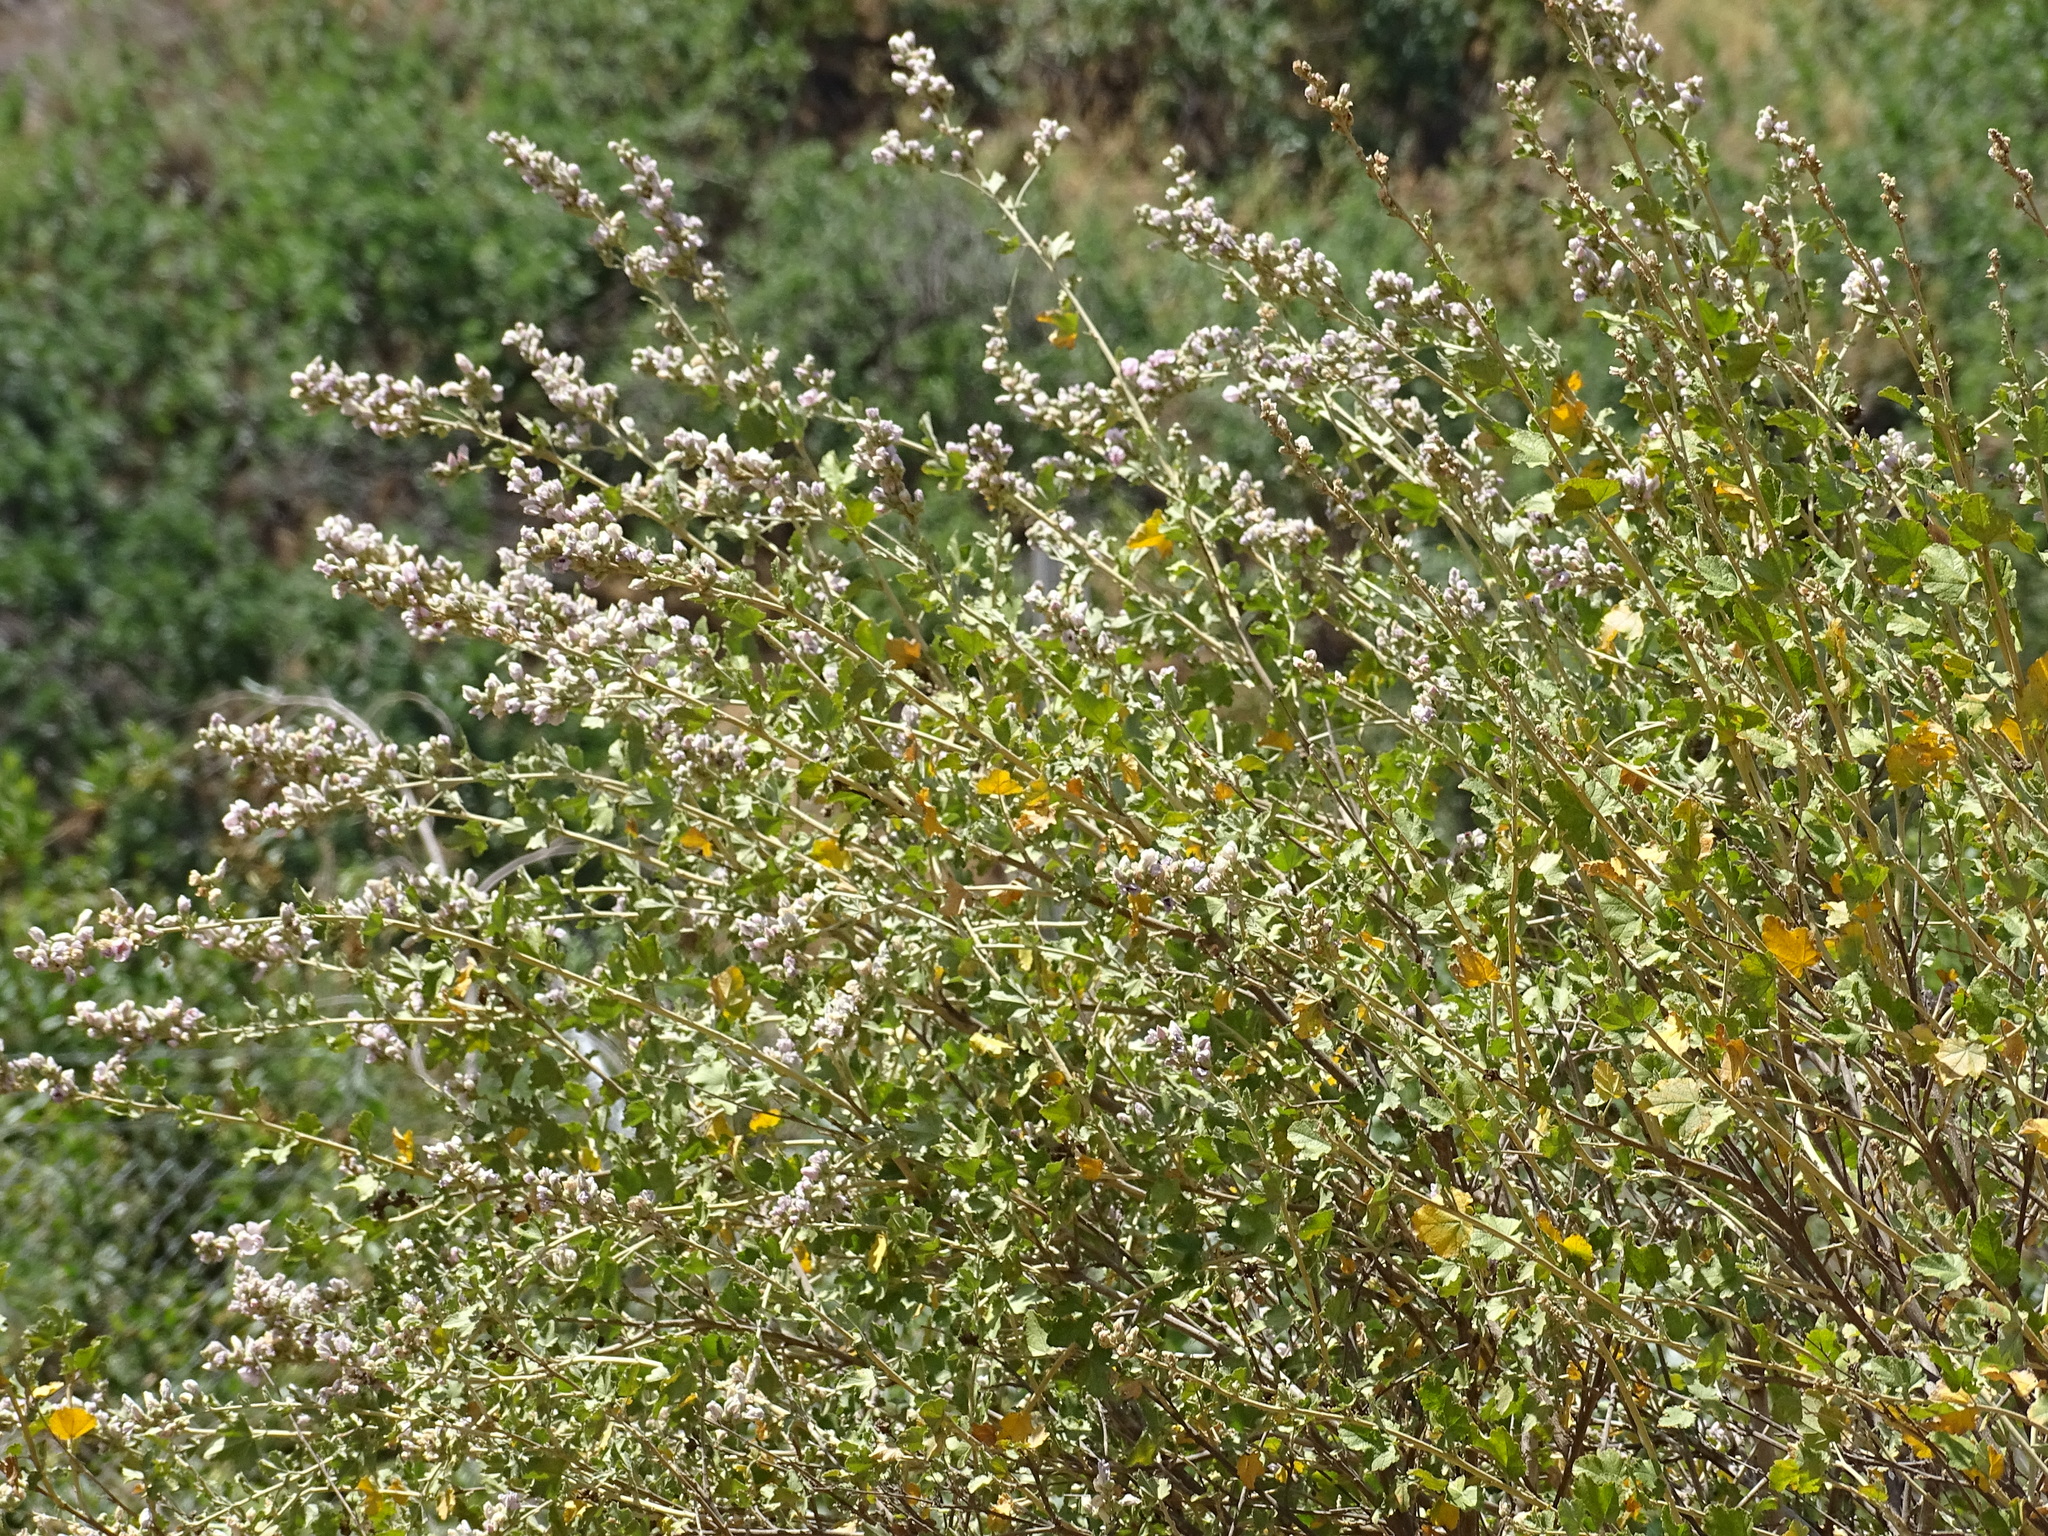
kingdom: Plantae
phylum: Tracheophyta
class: Magnoliopsida
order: Malvales
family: Malvaceae
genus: Malacothamnus
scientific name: Malacothamnus fasciculatus
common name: Sant cruz island bush-mallow
